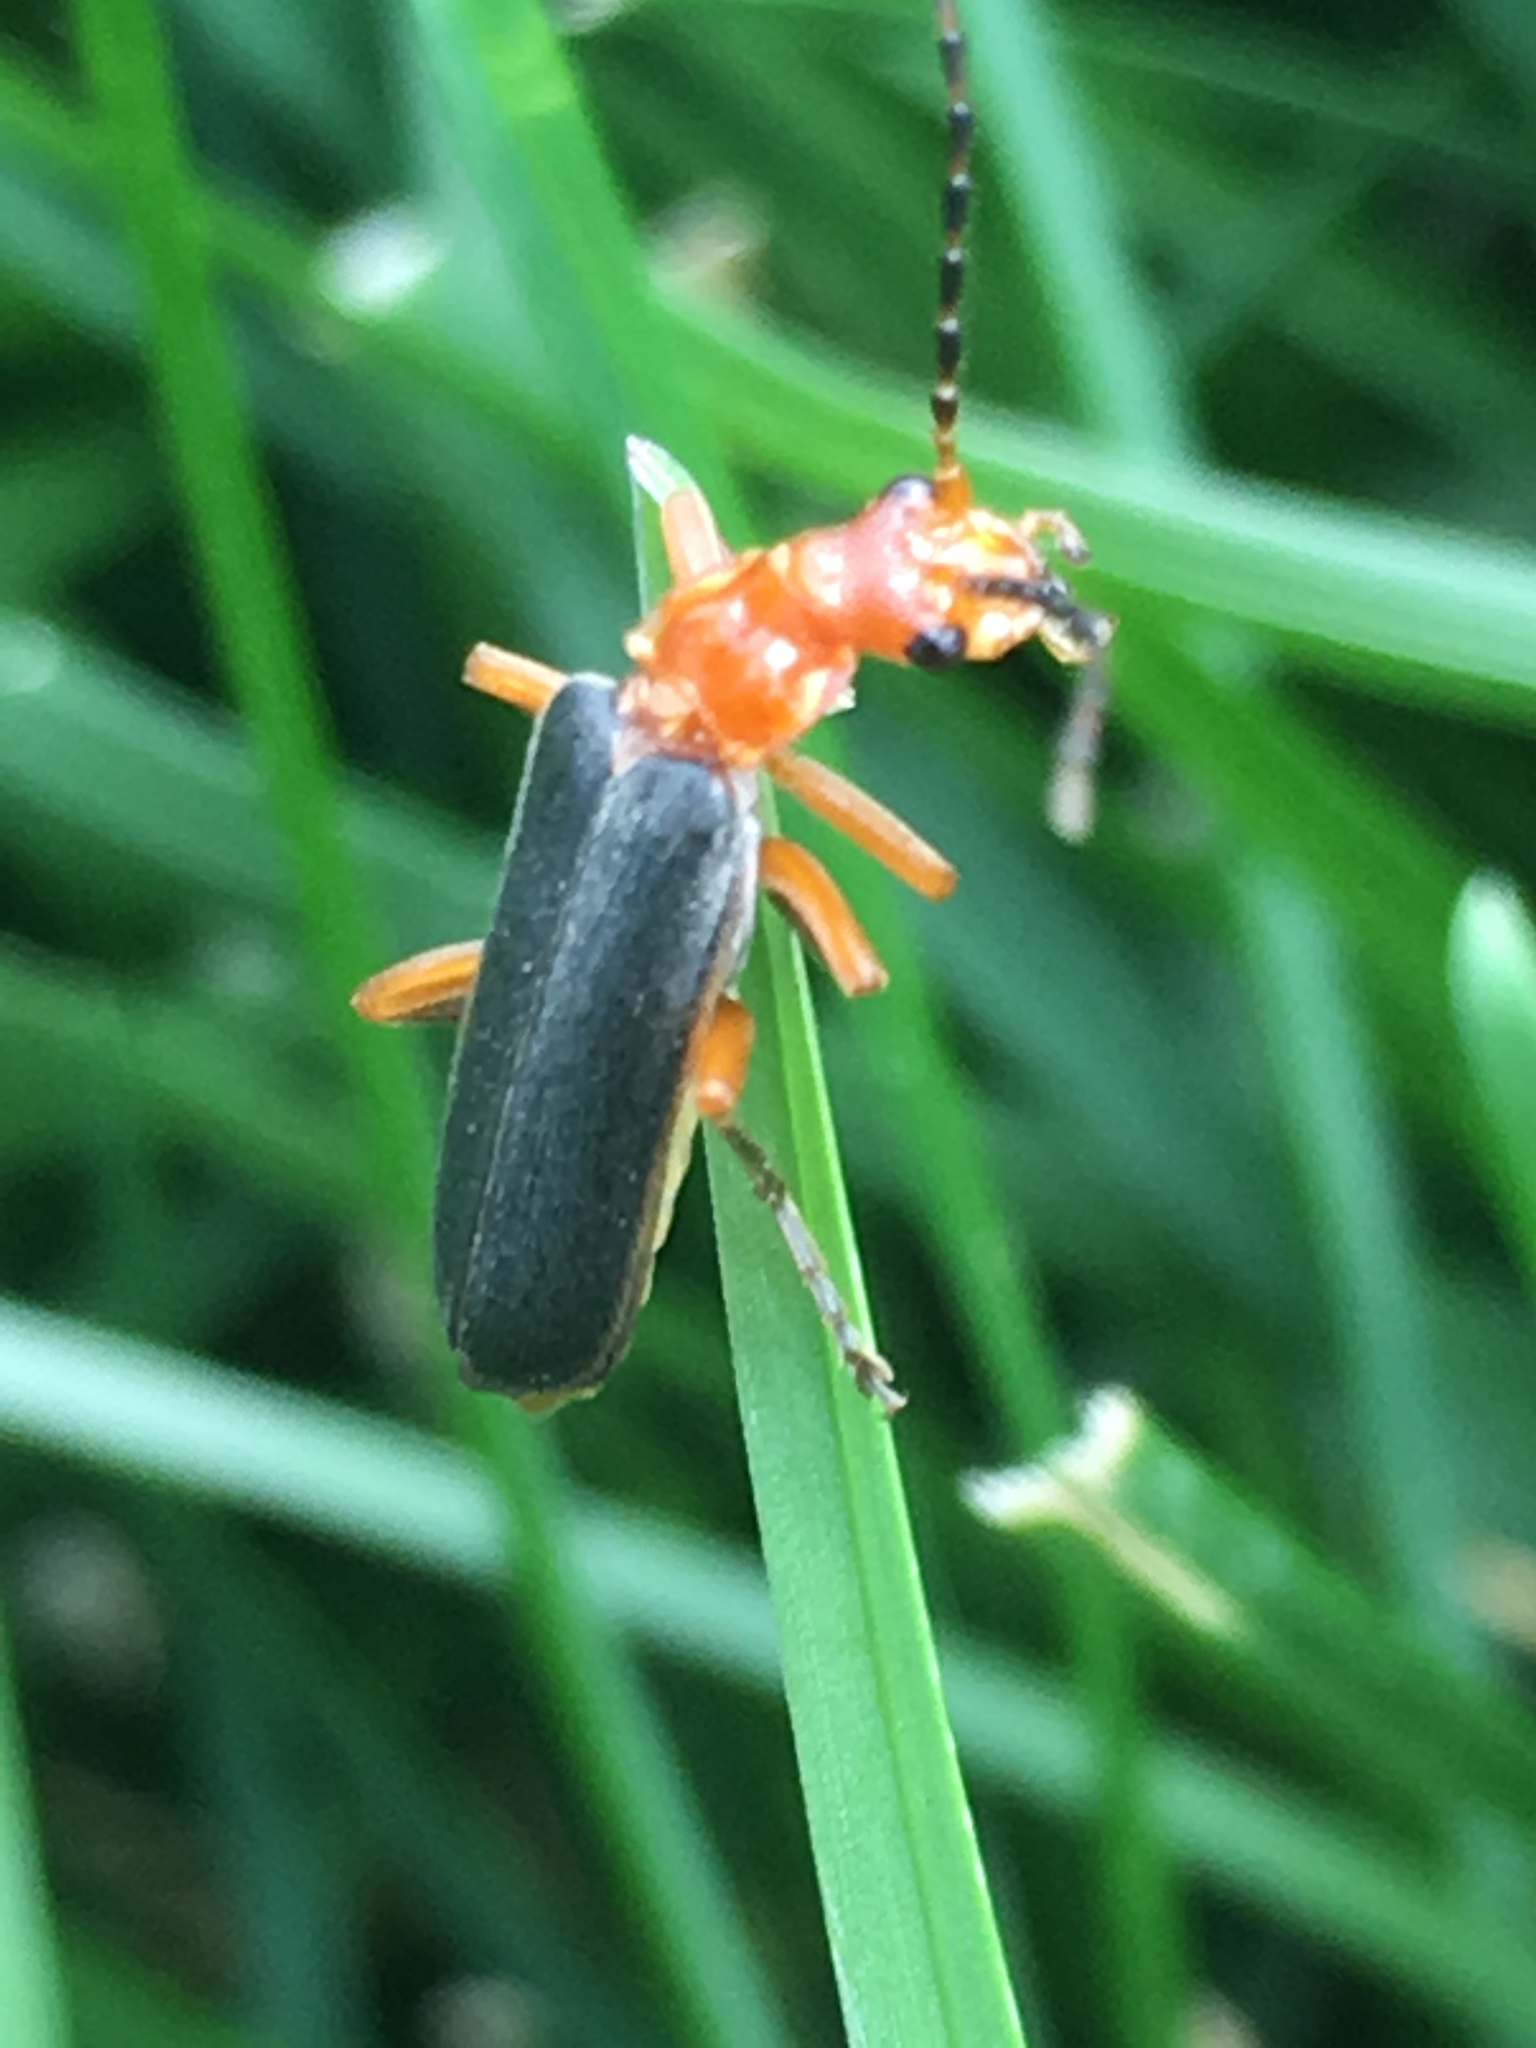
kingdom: Animalia
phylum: Arthropoda
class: Insecta
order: Coleoptera
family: Cantharidae
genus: Podabrus
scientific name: Podabrus tomentosus
